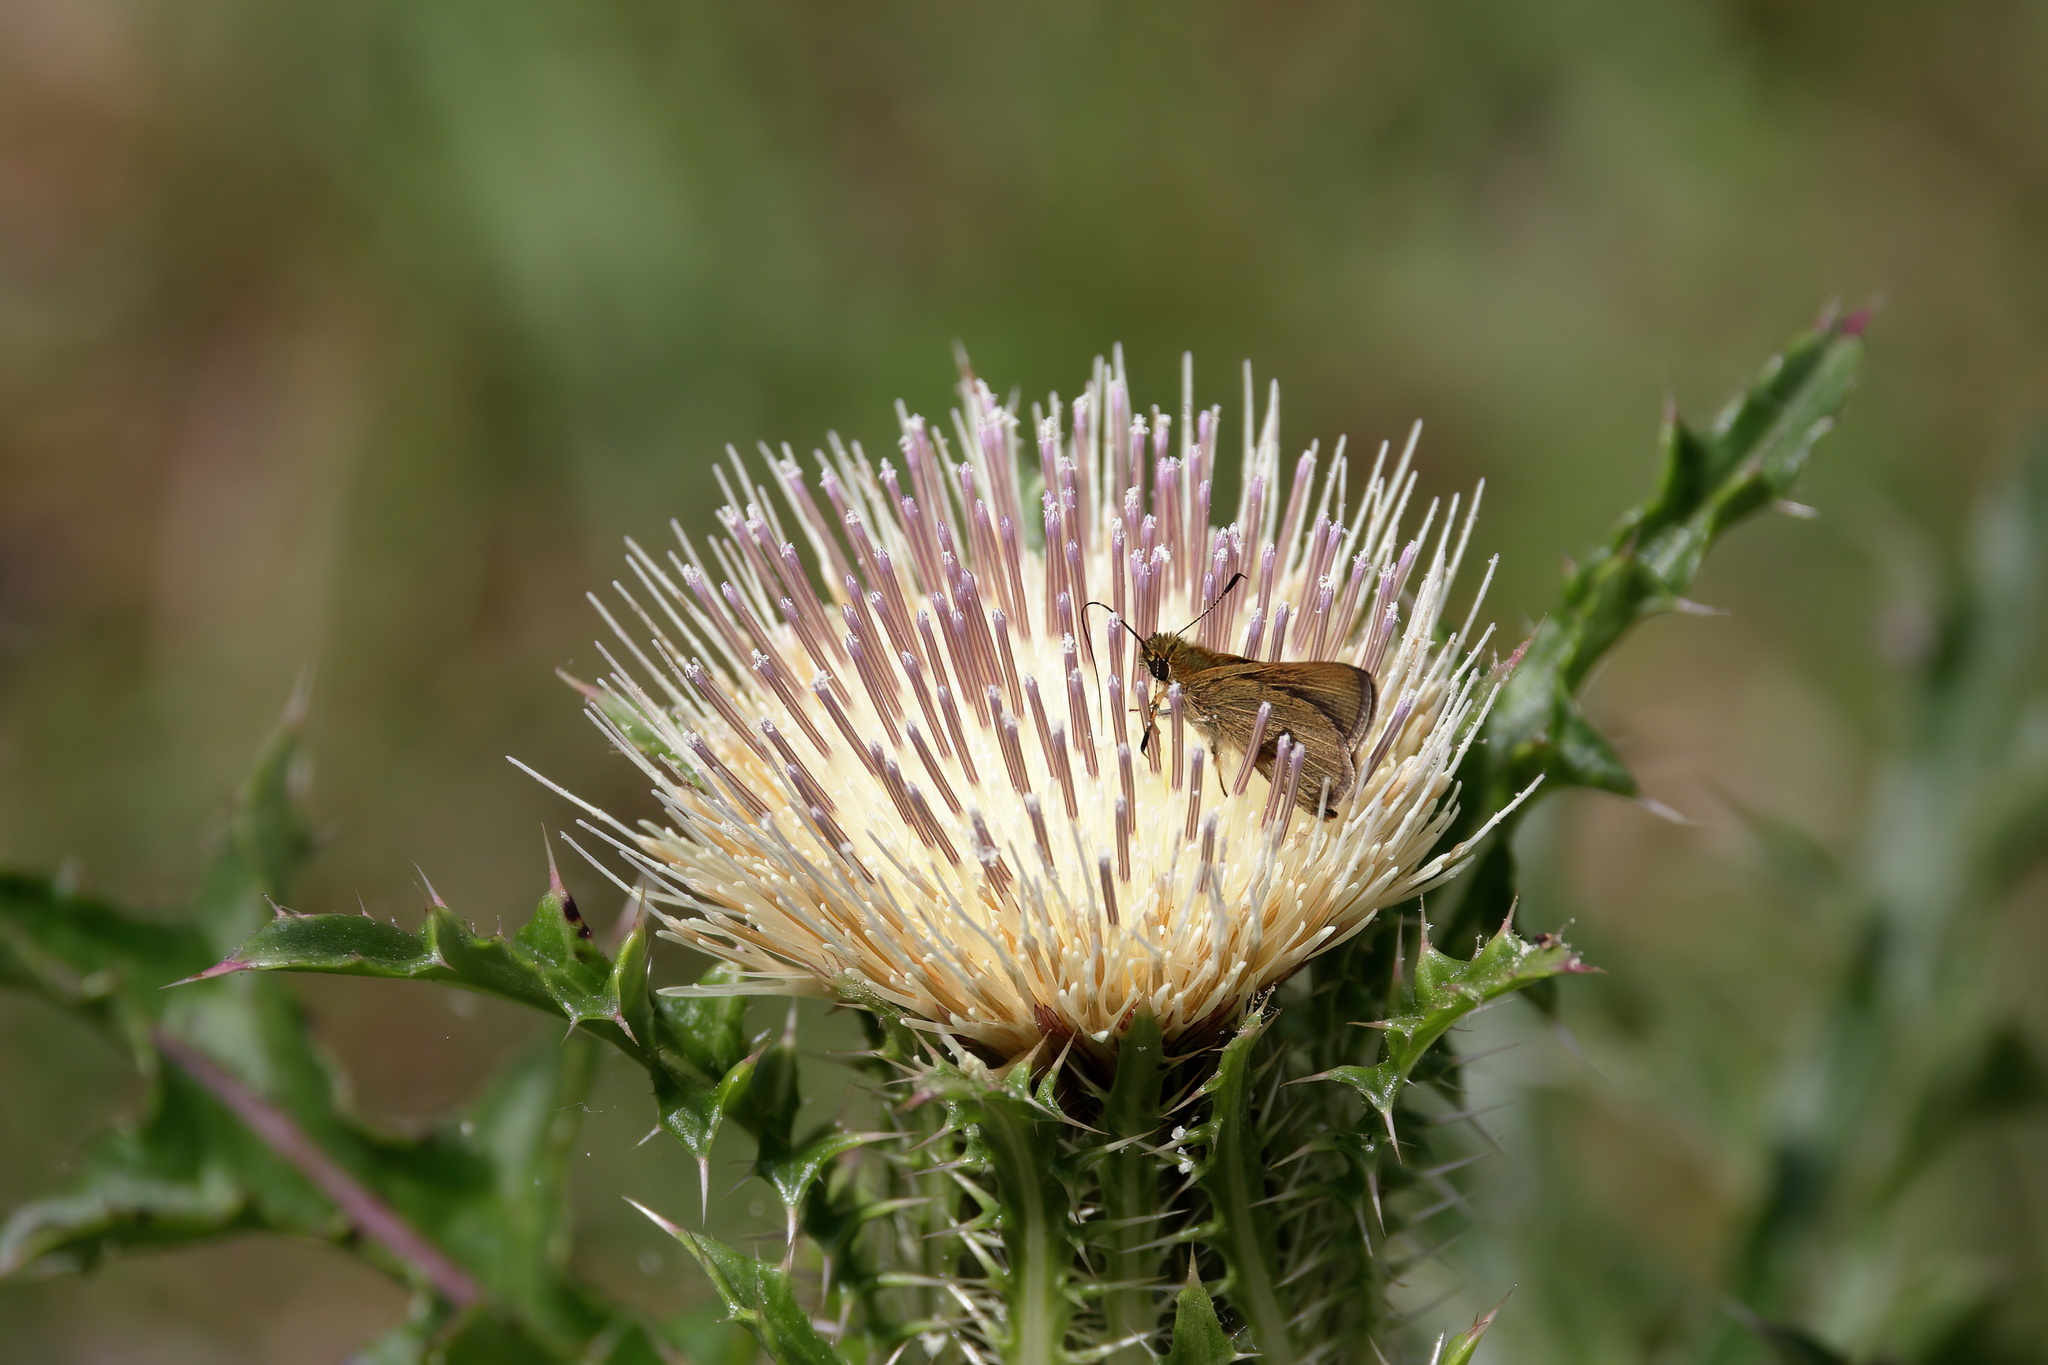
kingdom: Plantae
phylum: Tracheophyta
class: Magnoliopsida
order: Asterales
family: Asteraceae
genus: Cirsium
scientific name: Cirsium horridulum
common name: Bristly thistle
